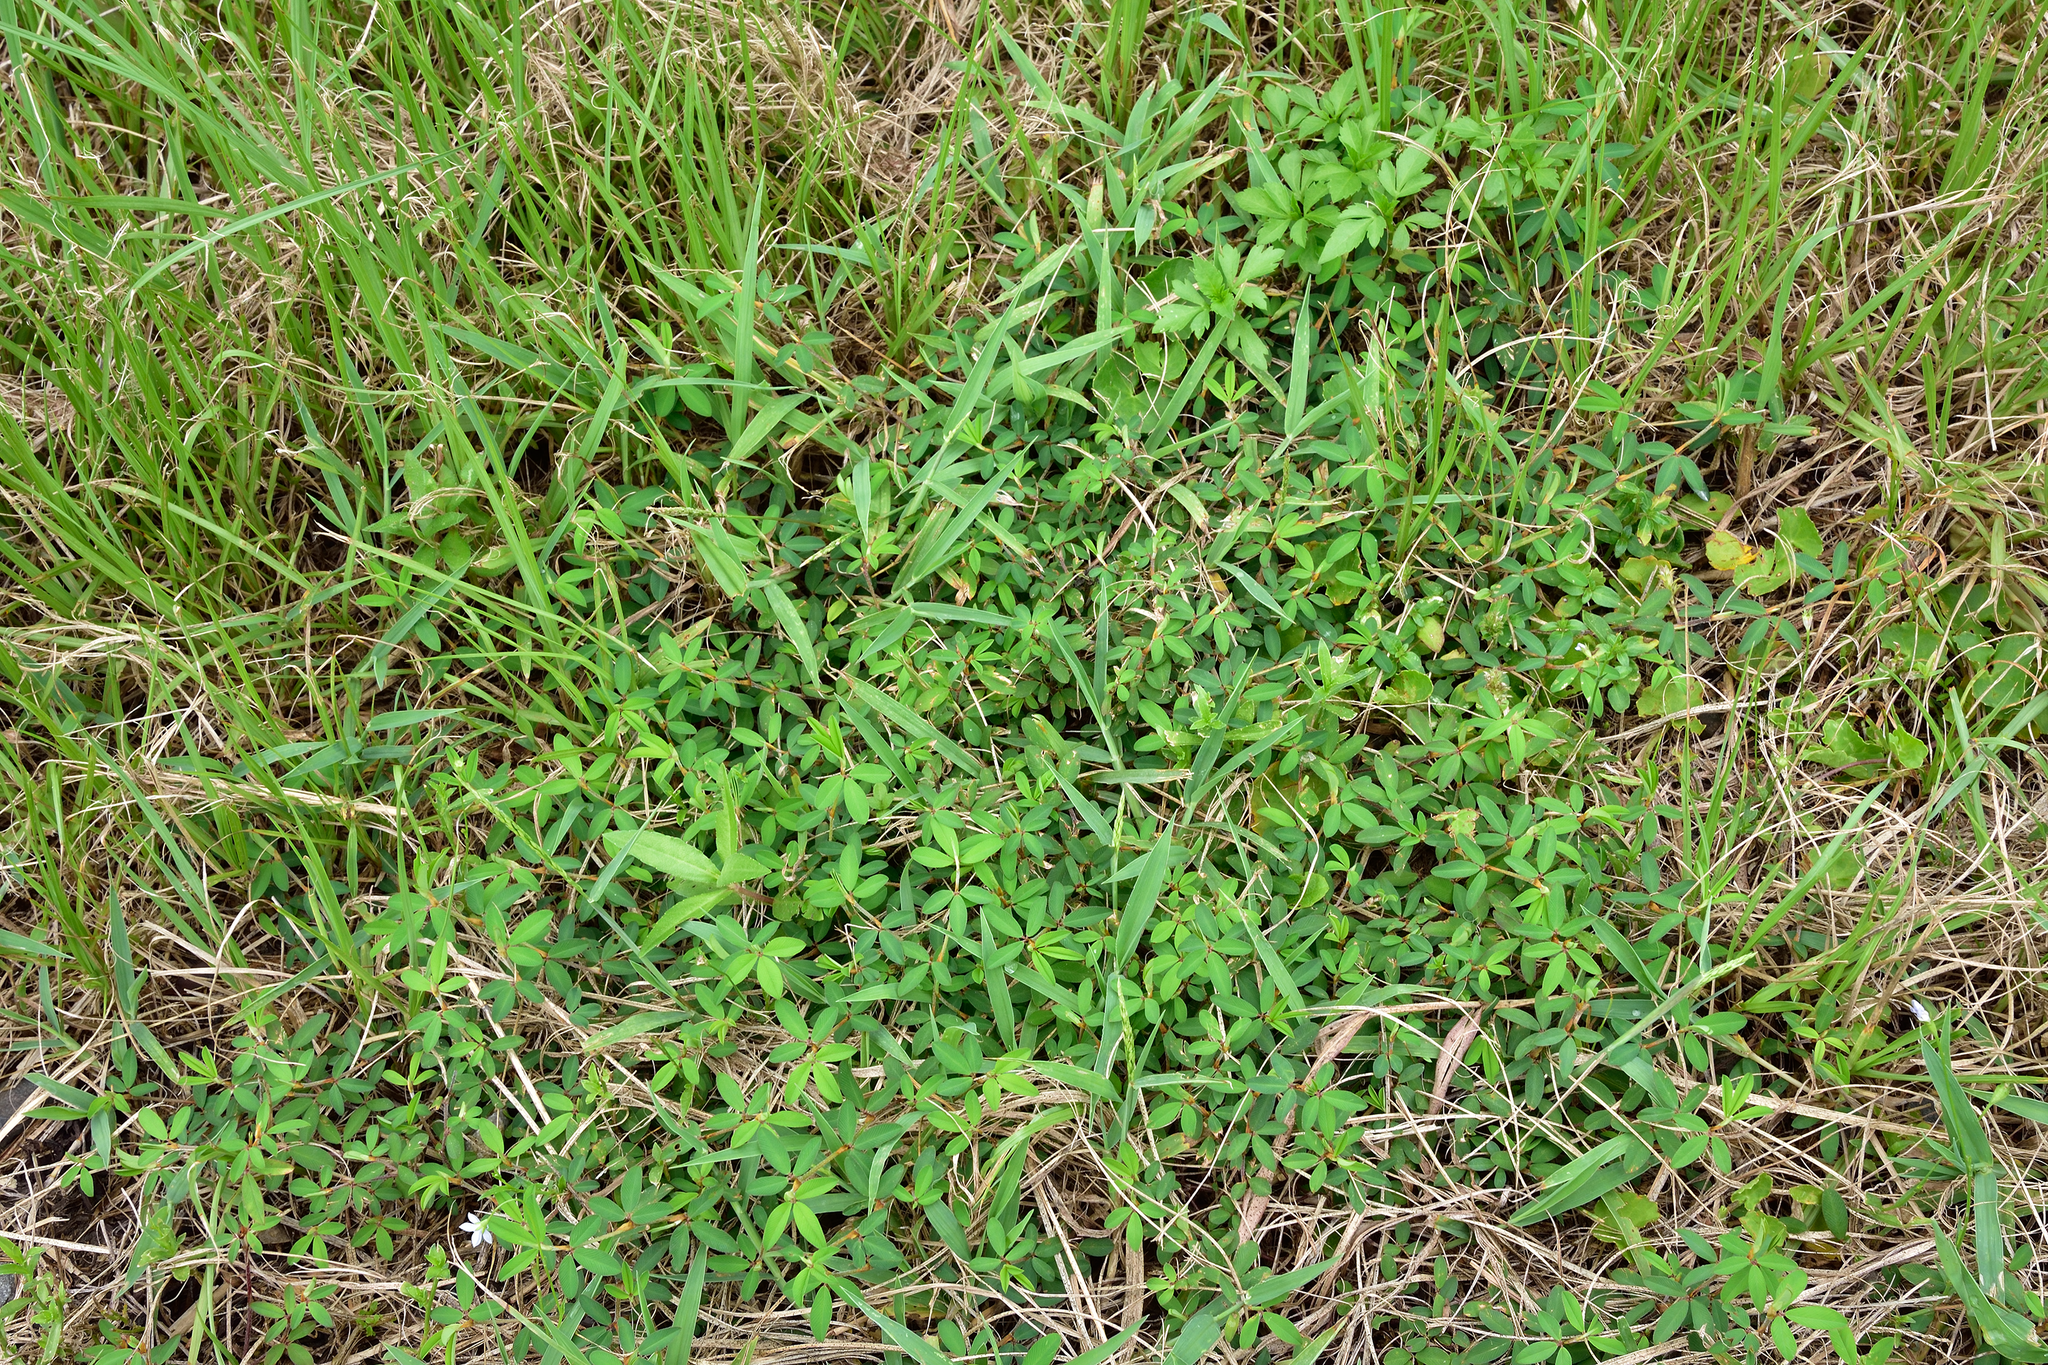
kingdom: Plantae
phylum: Tracheophyta
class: Magnoliopsida
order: Fabales
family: Fabaceae
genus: Kummerowia
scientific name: Kummerowia striata
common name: Japanese clover
